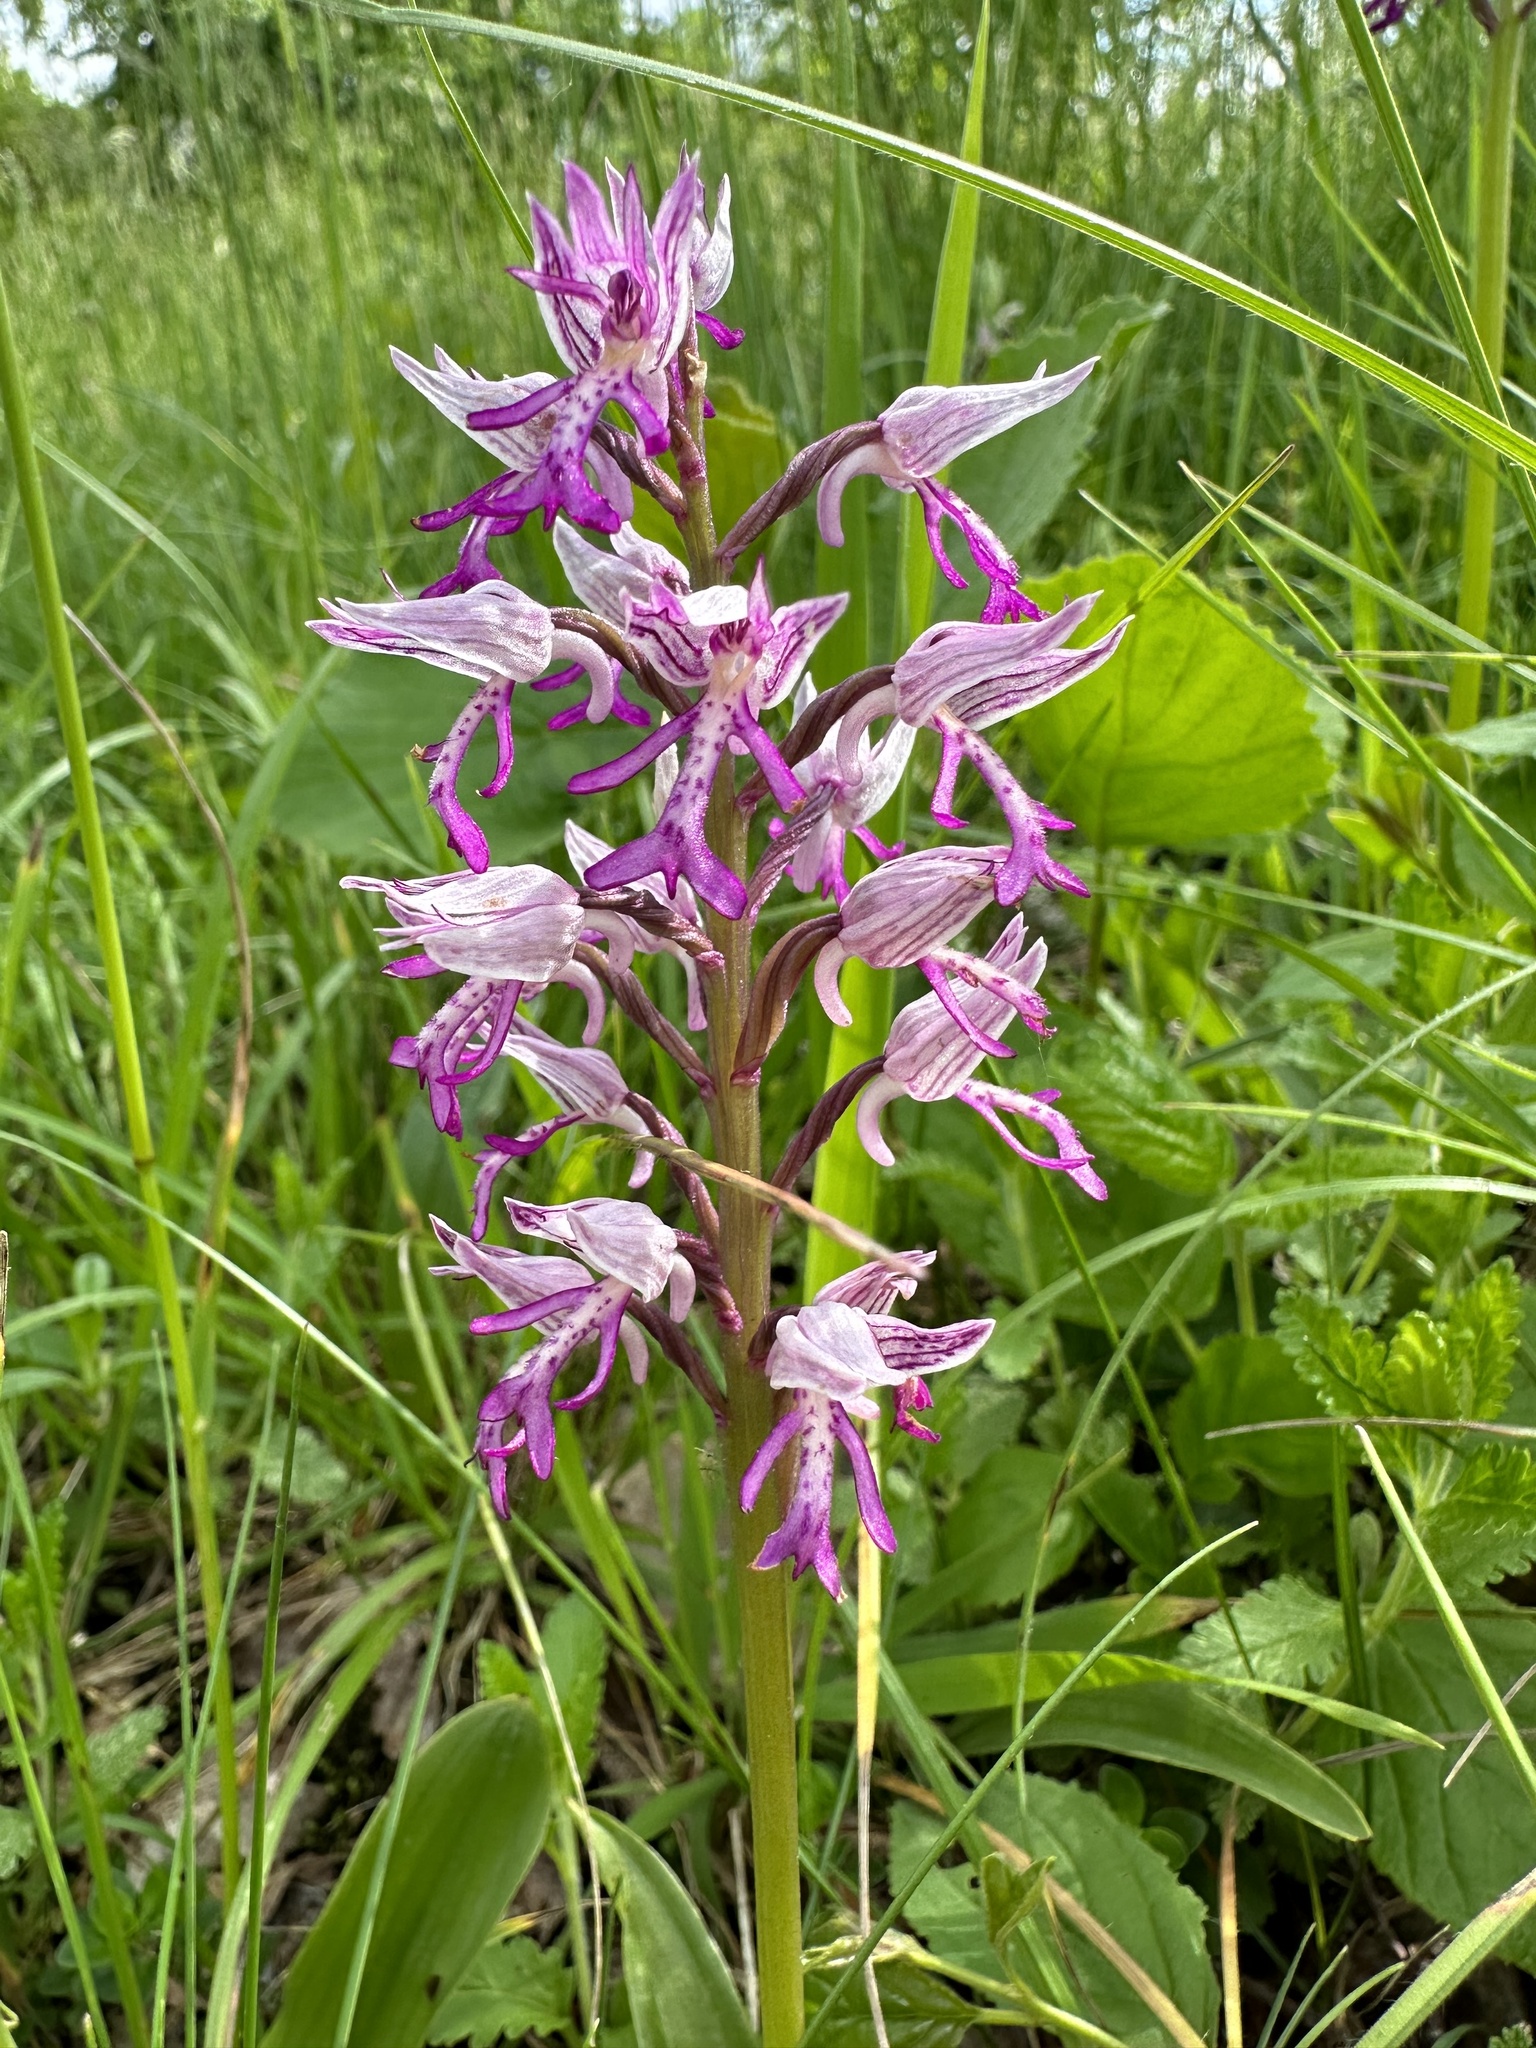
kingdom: Plantae
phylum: Tracheophyta
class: Liliopsida
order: Asparagales
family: Orchidaceae
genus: Orchis
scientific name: Orchis militaris
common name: Military orchid
